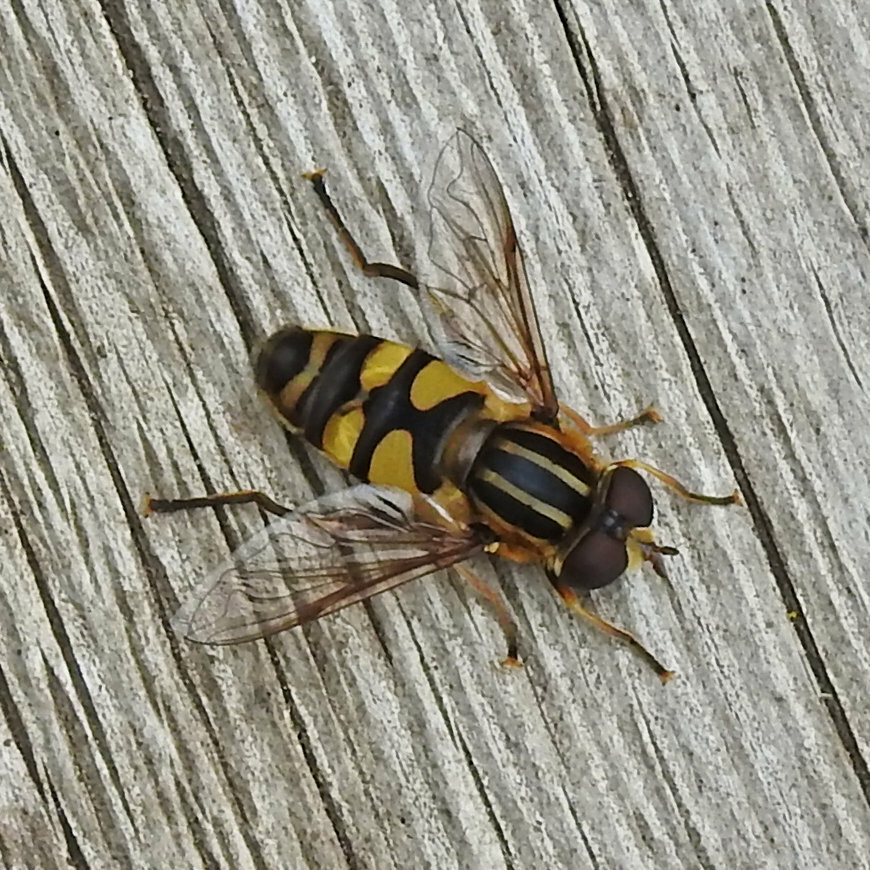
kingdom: Animalia
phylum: Arthropoda
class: Insecta
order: Diptera
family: Syrphidae
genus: Helophilus
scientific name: Helophilus fasciatus
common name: Narrow-headed marsh fly
